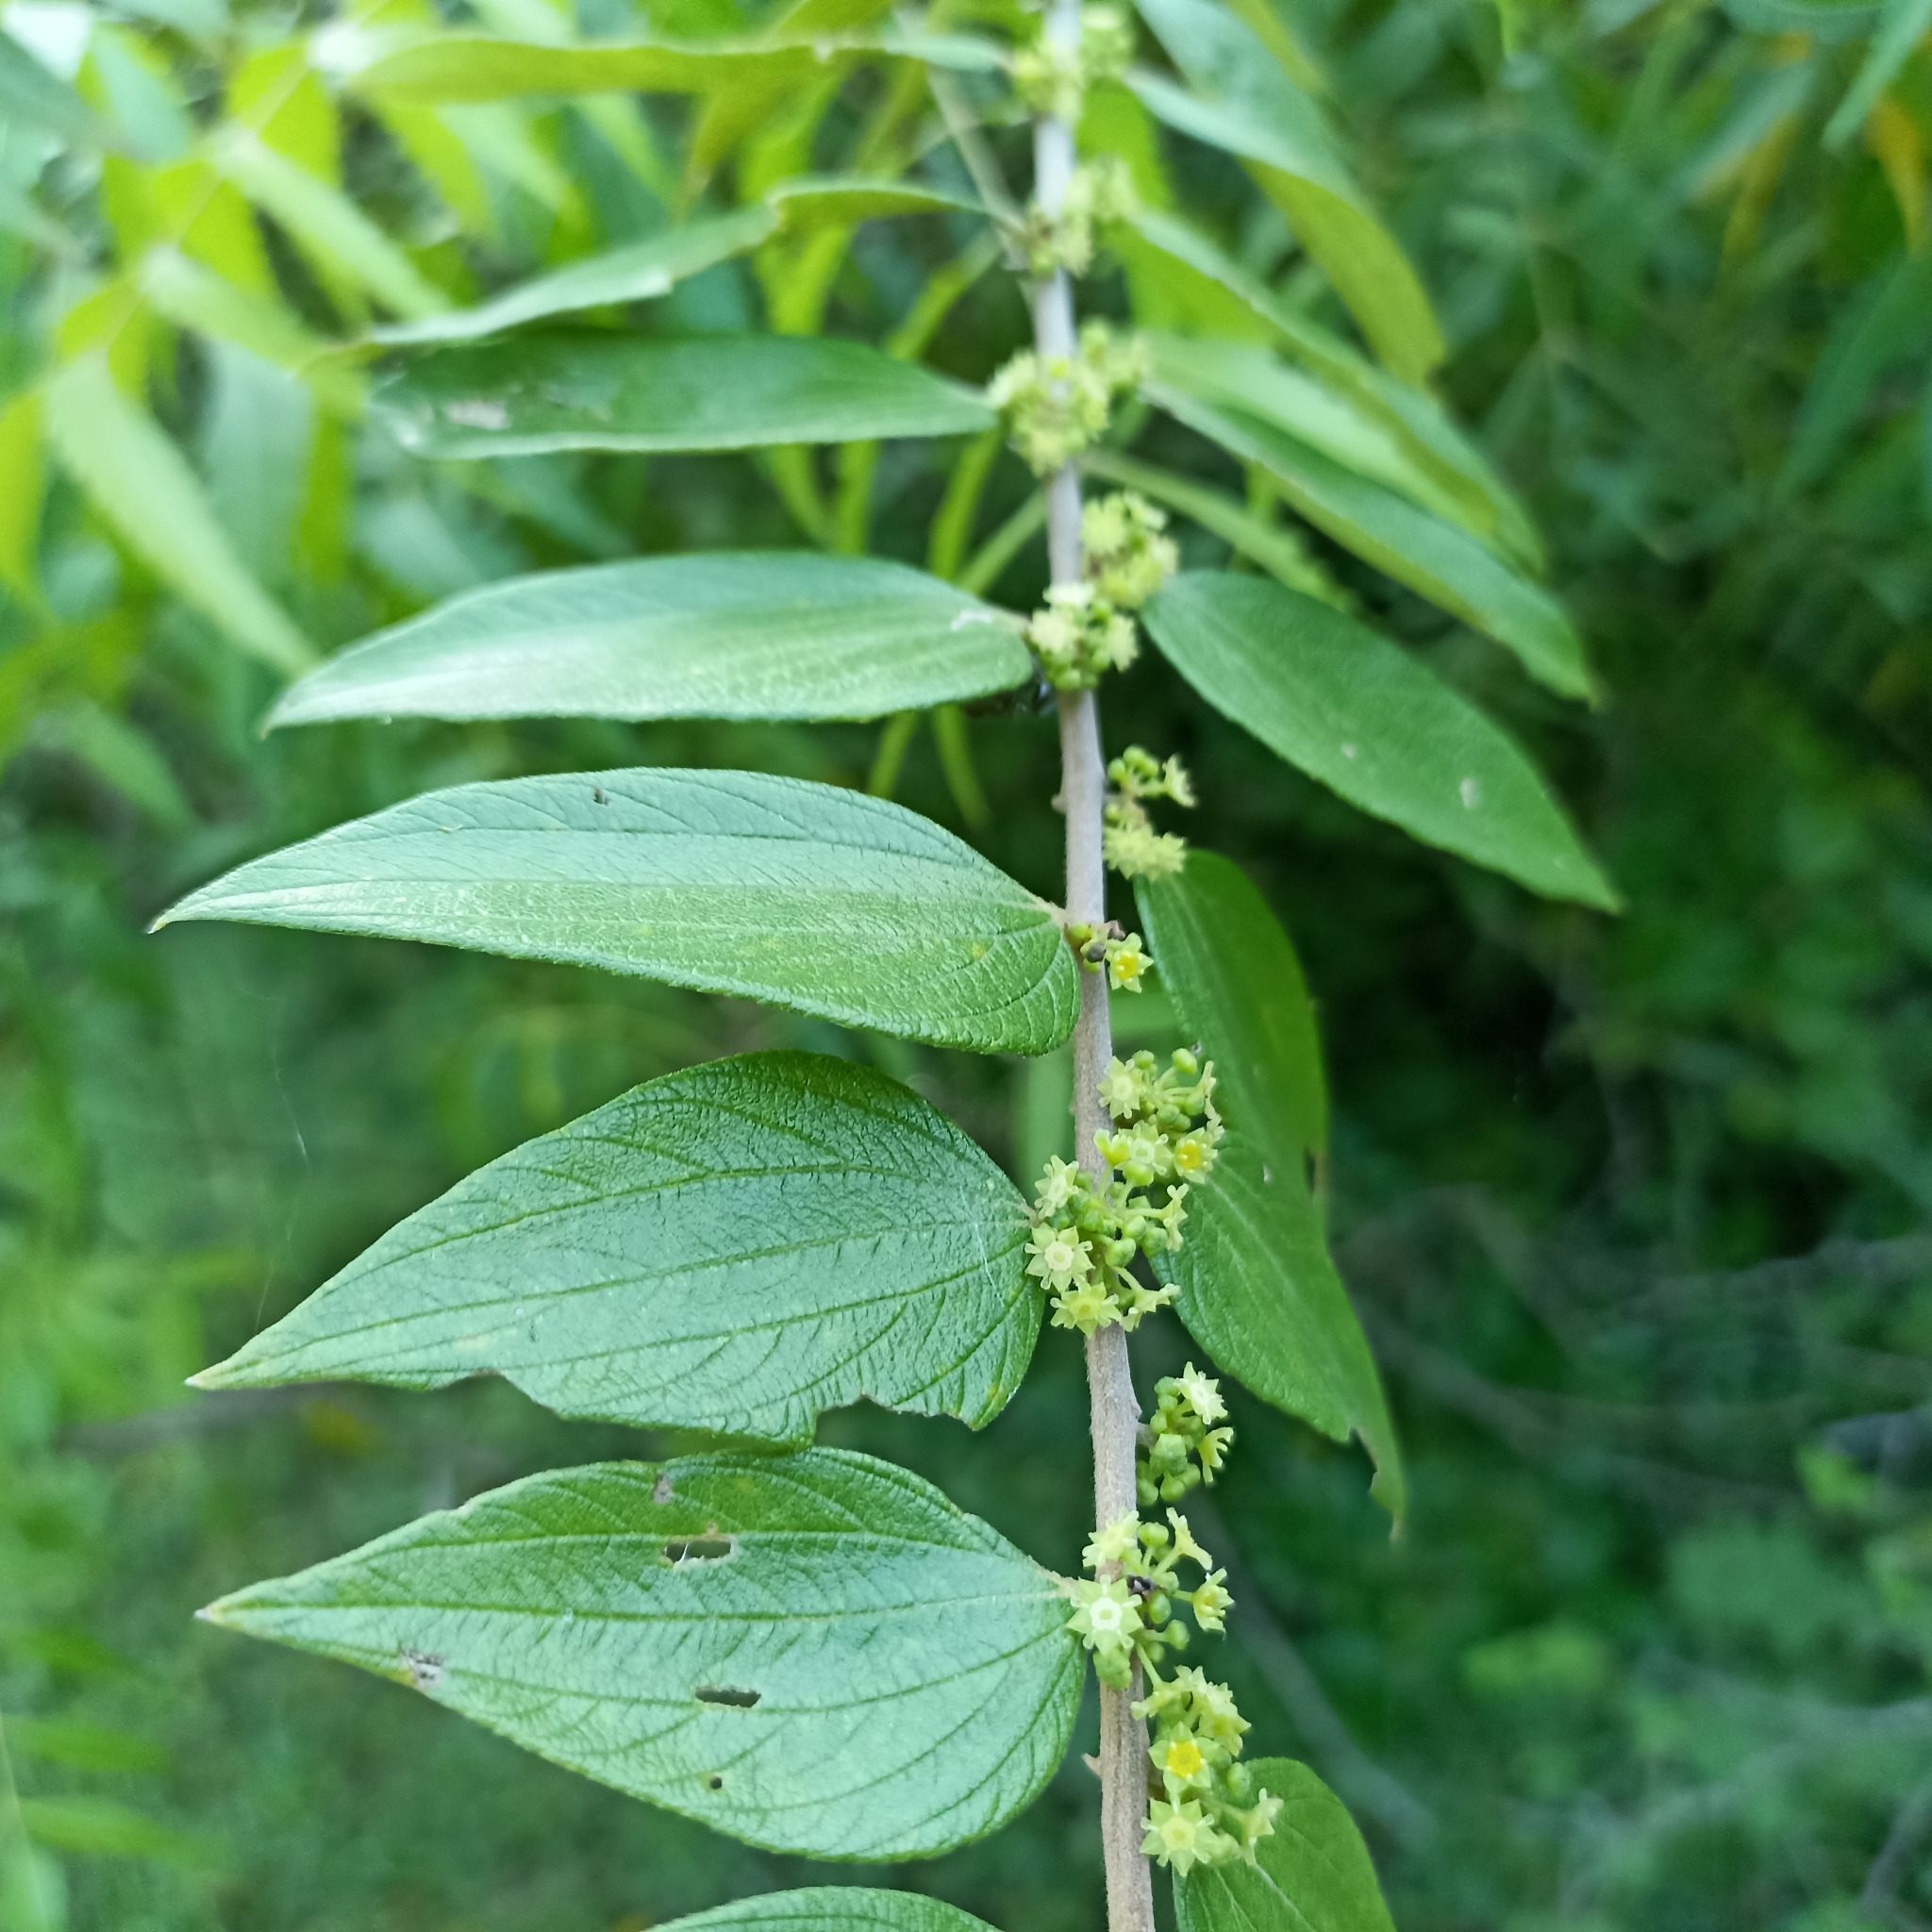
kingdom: Plantae
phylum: Tracheophyta
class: Magnoliopsida
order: Rosales
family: Rhamnaceae
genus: Ziziphus
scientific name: Ziziphus oenopolia
